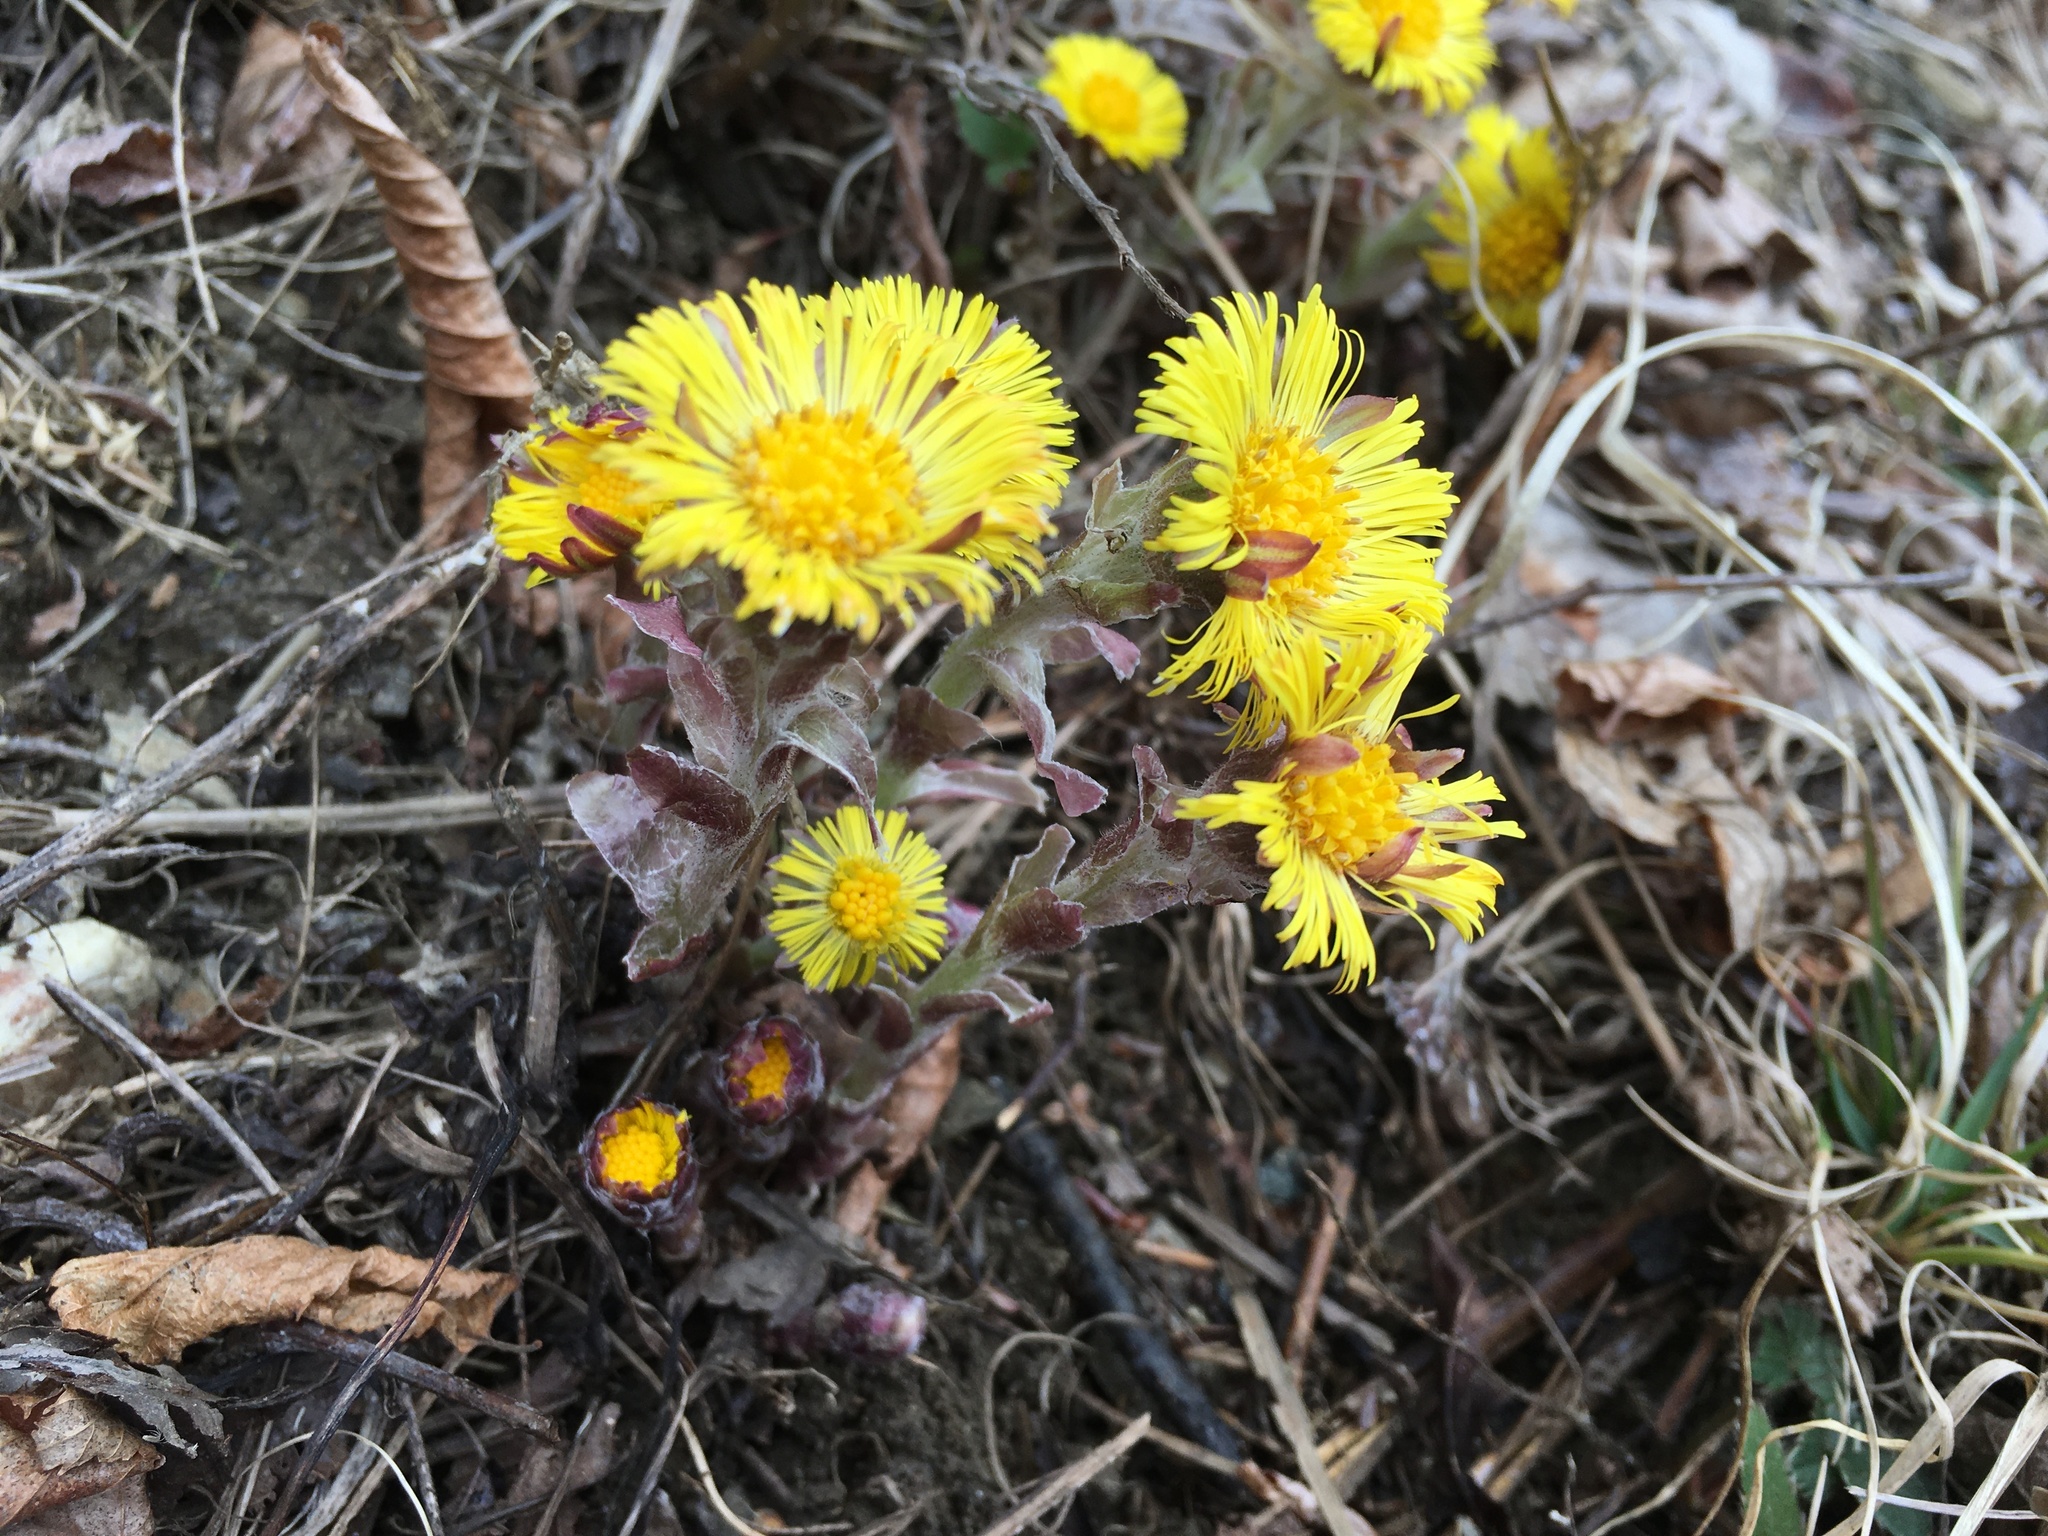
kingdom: Plantae
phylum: Tracheophyta
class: Magnoliopsida
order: Asterales
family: Asteraceae
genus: Tussilago
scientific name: Tussilago farfara
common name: Coltsfoot
